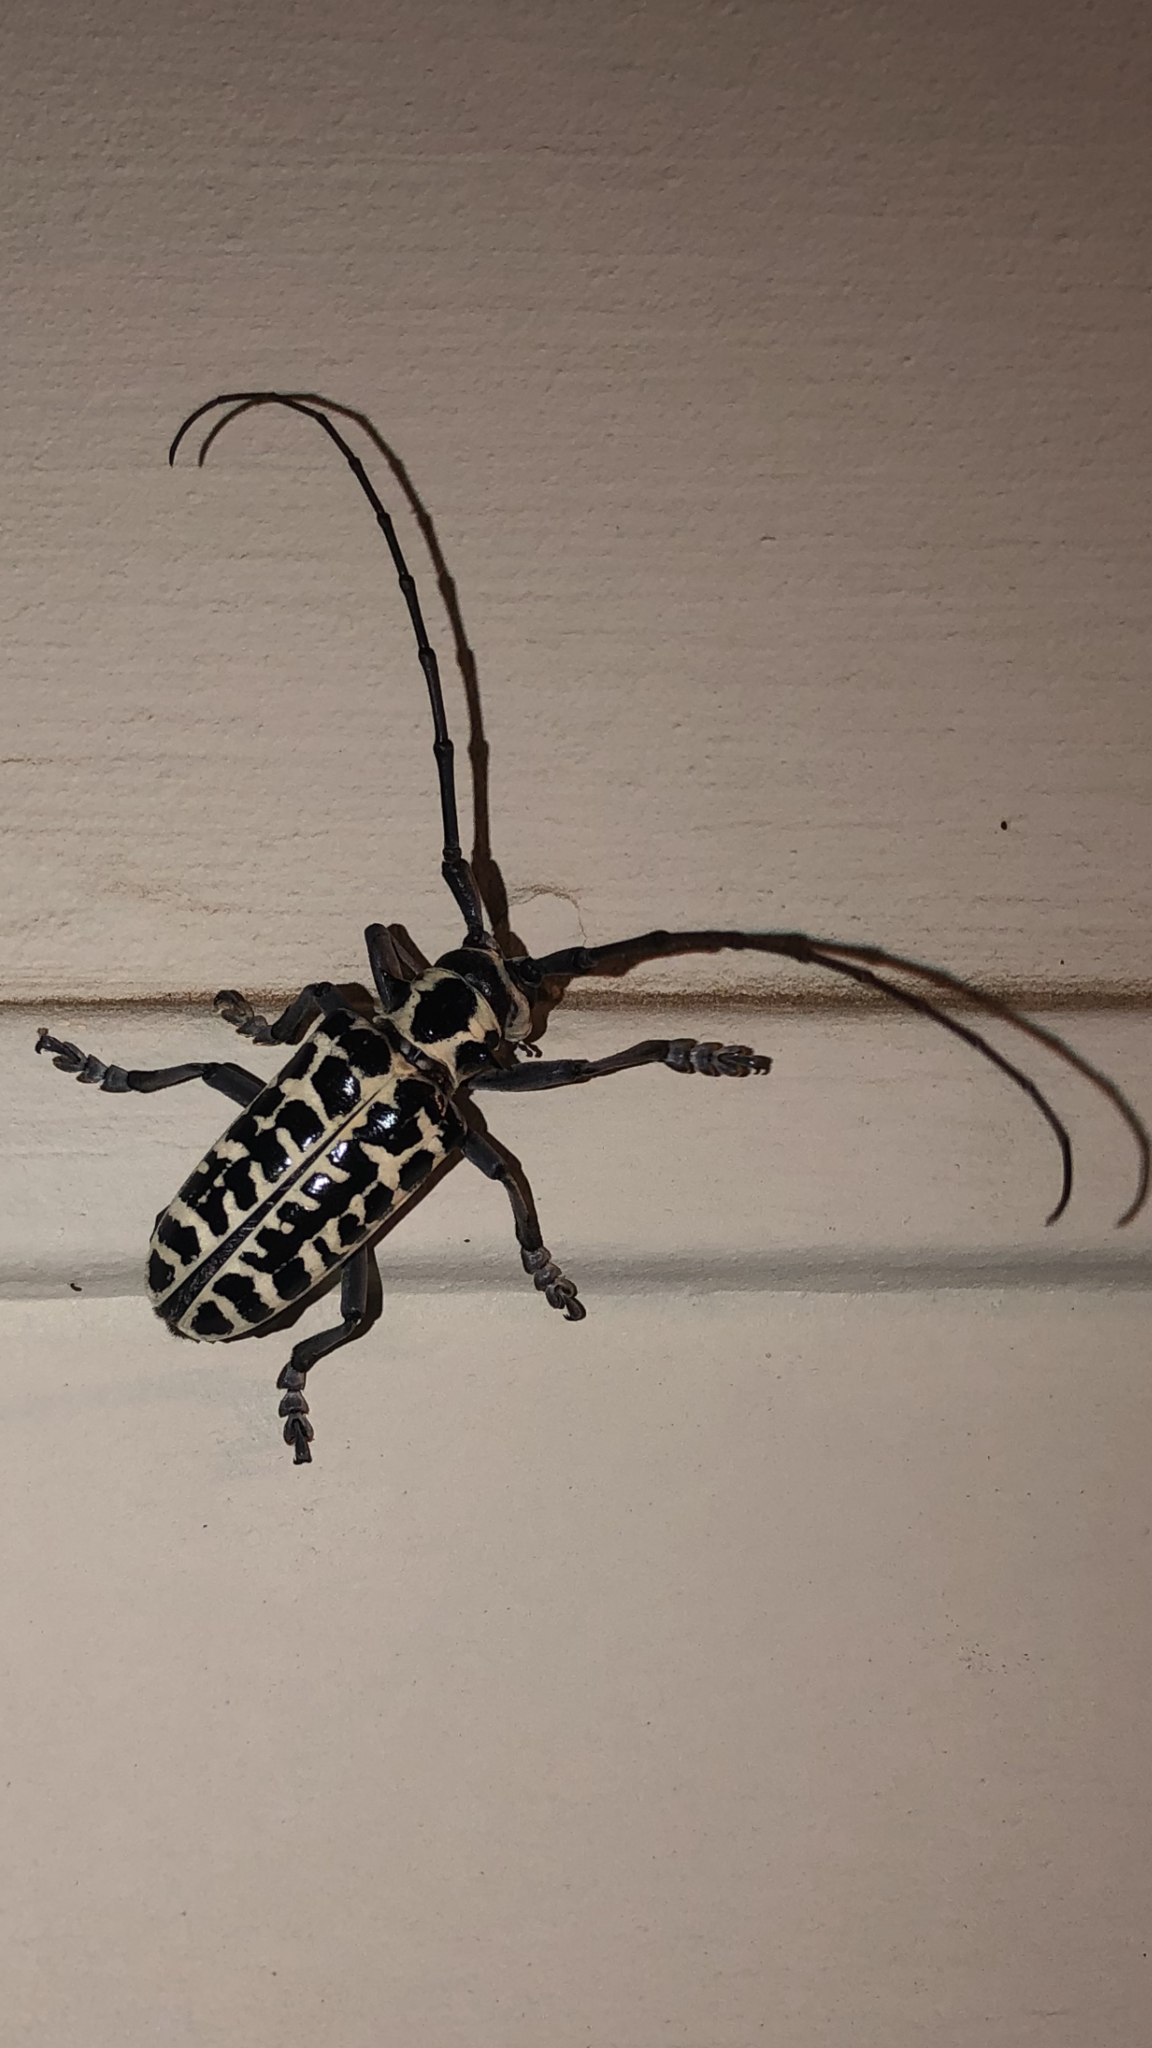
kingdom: Animalia
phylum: Arthropoda
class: Insecta
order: Coleoptera
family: Cerambycidae
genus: Plectrodera
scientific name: Plectrodera scalator
